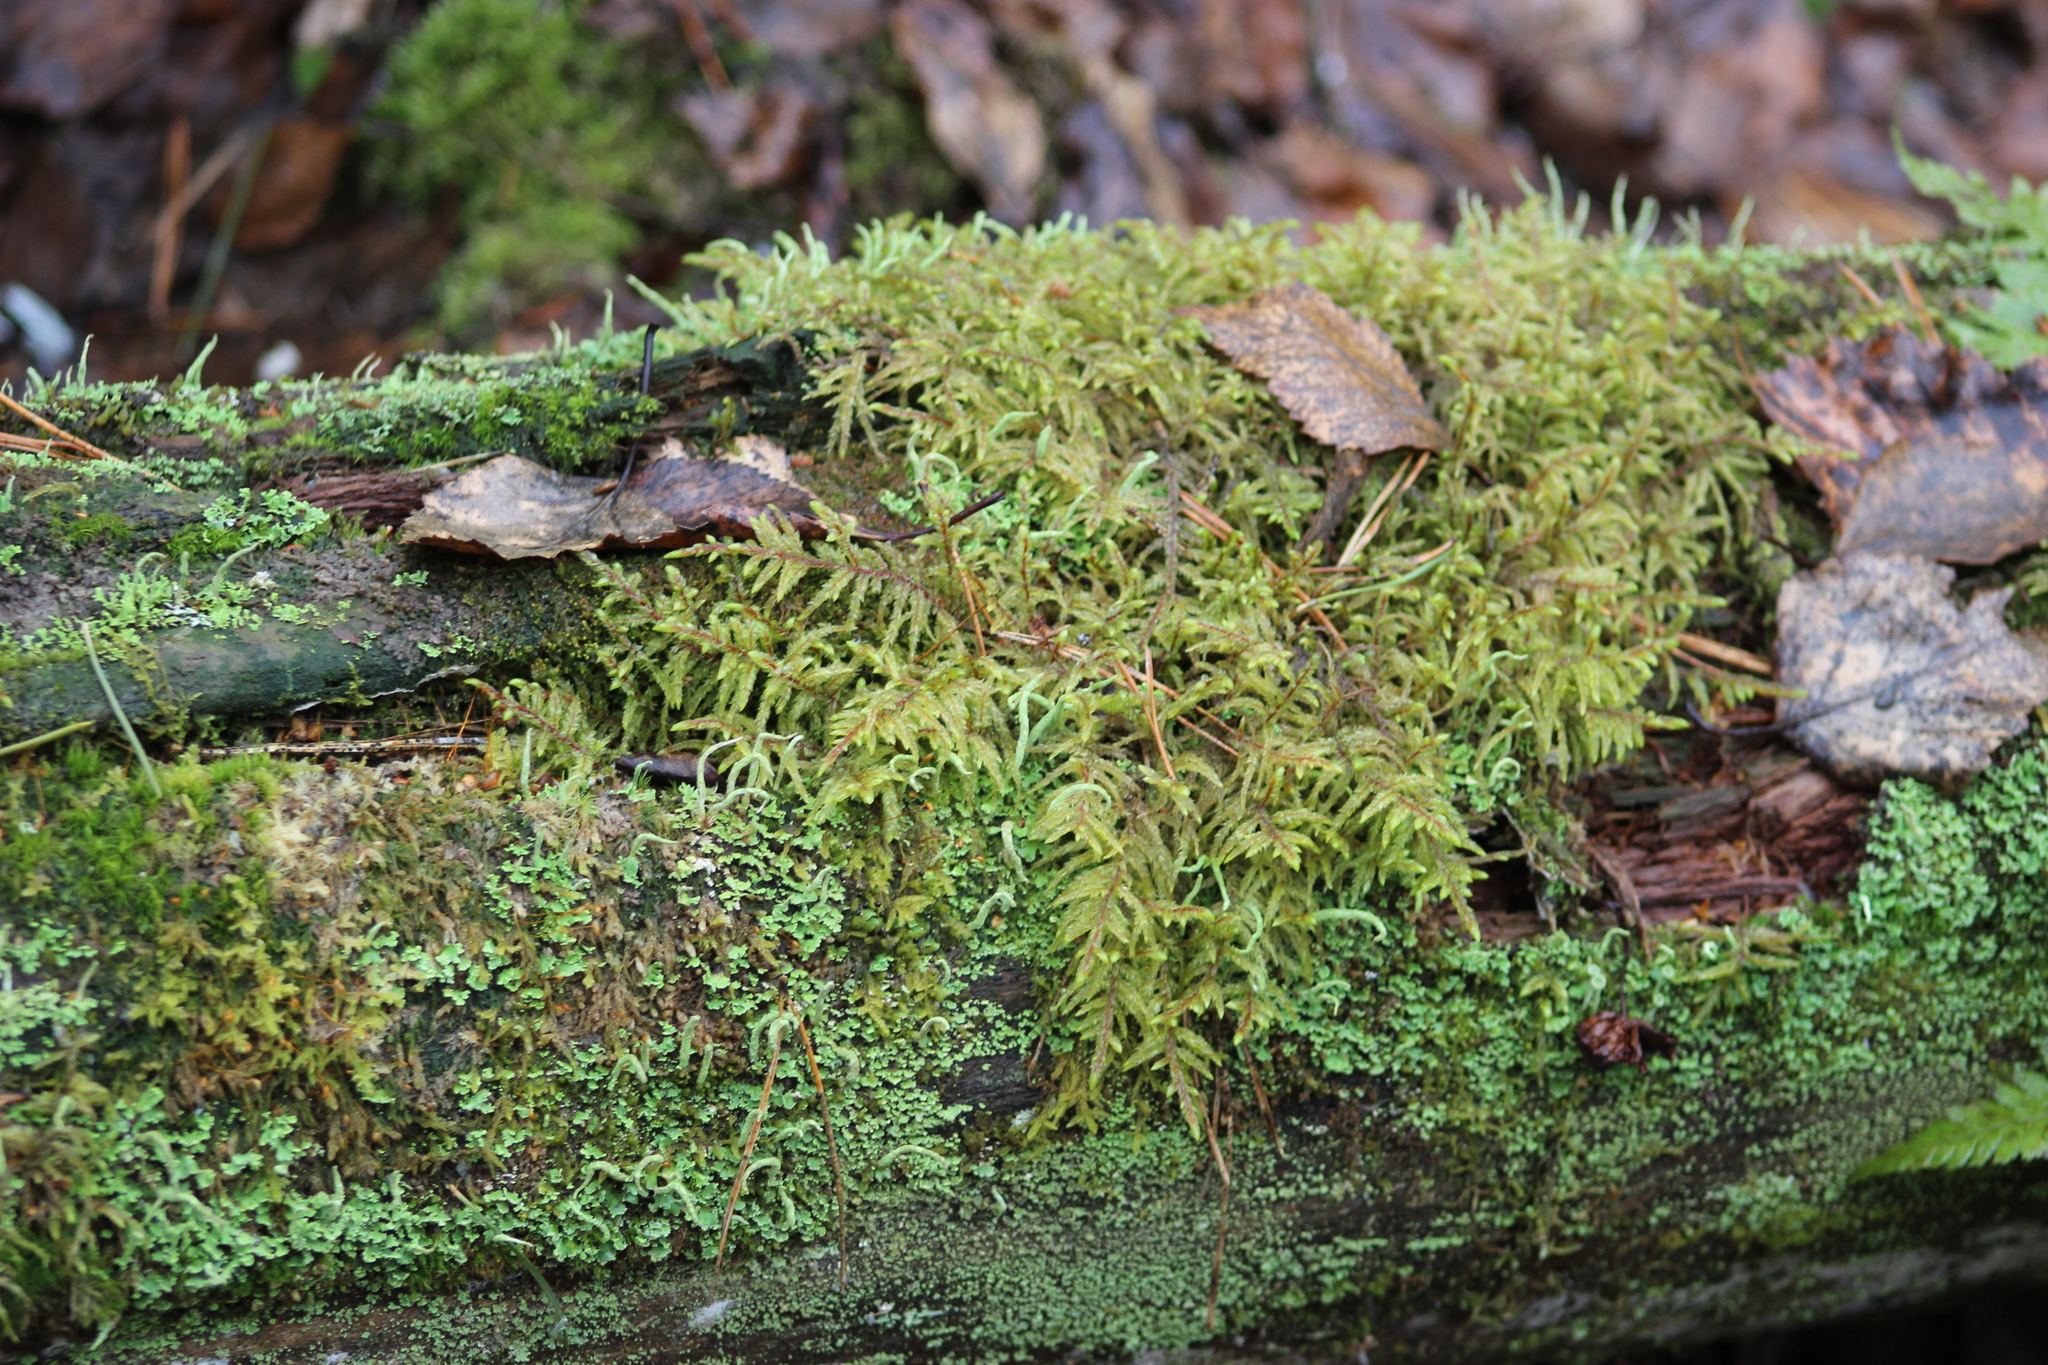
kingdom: Plantae
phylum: Bryophyta
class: Bryopsida
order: Hypnales
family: Hylocomiaceae
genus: Pleurozium
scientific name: Pleurozium schreberi
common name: Red-stemmed feather moss
